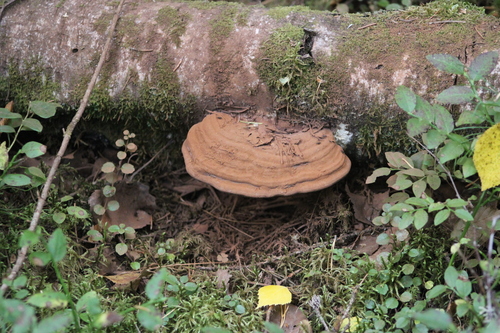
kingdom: Fungi
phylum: Basidiomycota
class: Agaricomycetes
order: Polyporales
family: Polyporaceae
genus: Ganoderma
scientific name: Ganoderma applanatum
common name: Artist's bracket
